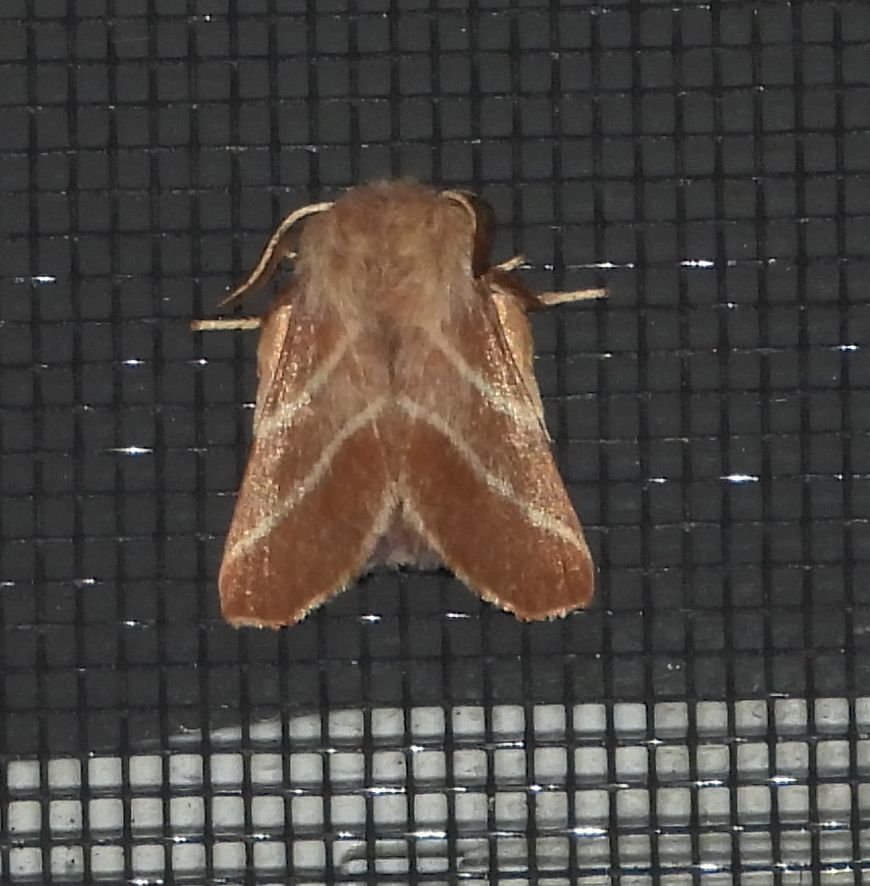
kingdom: Animalia
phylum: Arthropoda
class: Insecta
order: Lepidoptera
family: Lasiocampidae
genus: Malacosoma
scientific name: Malacosoma americana
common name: Eastern tent caterpillar moth
